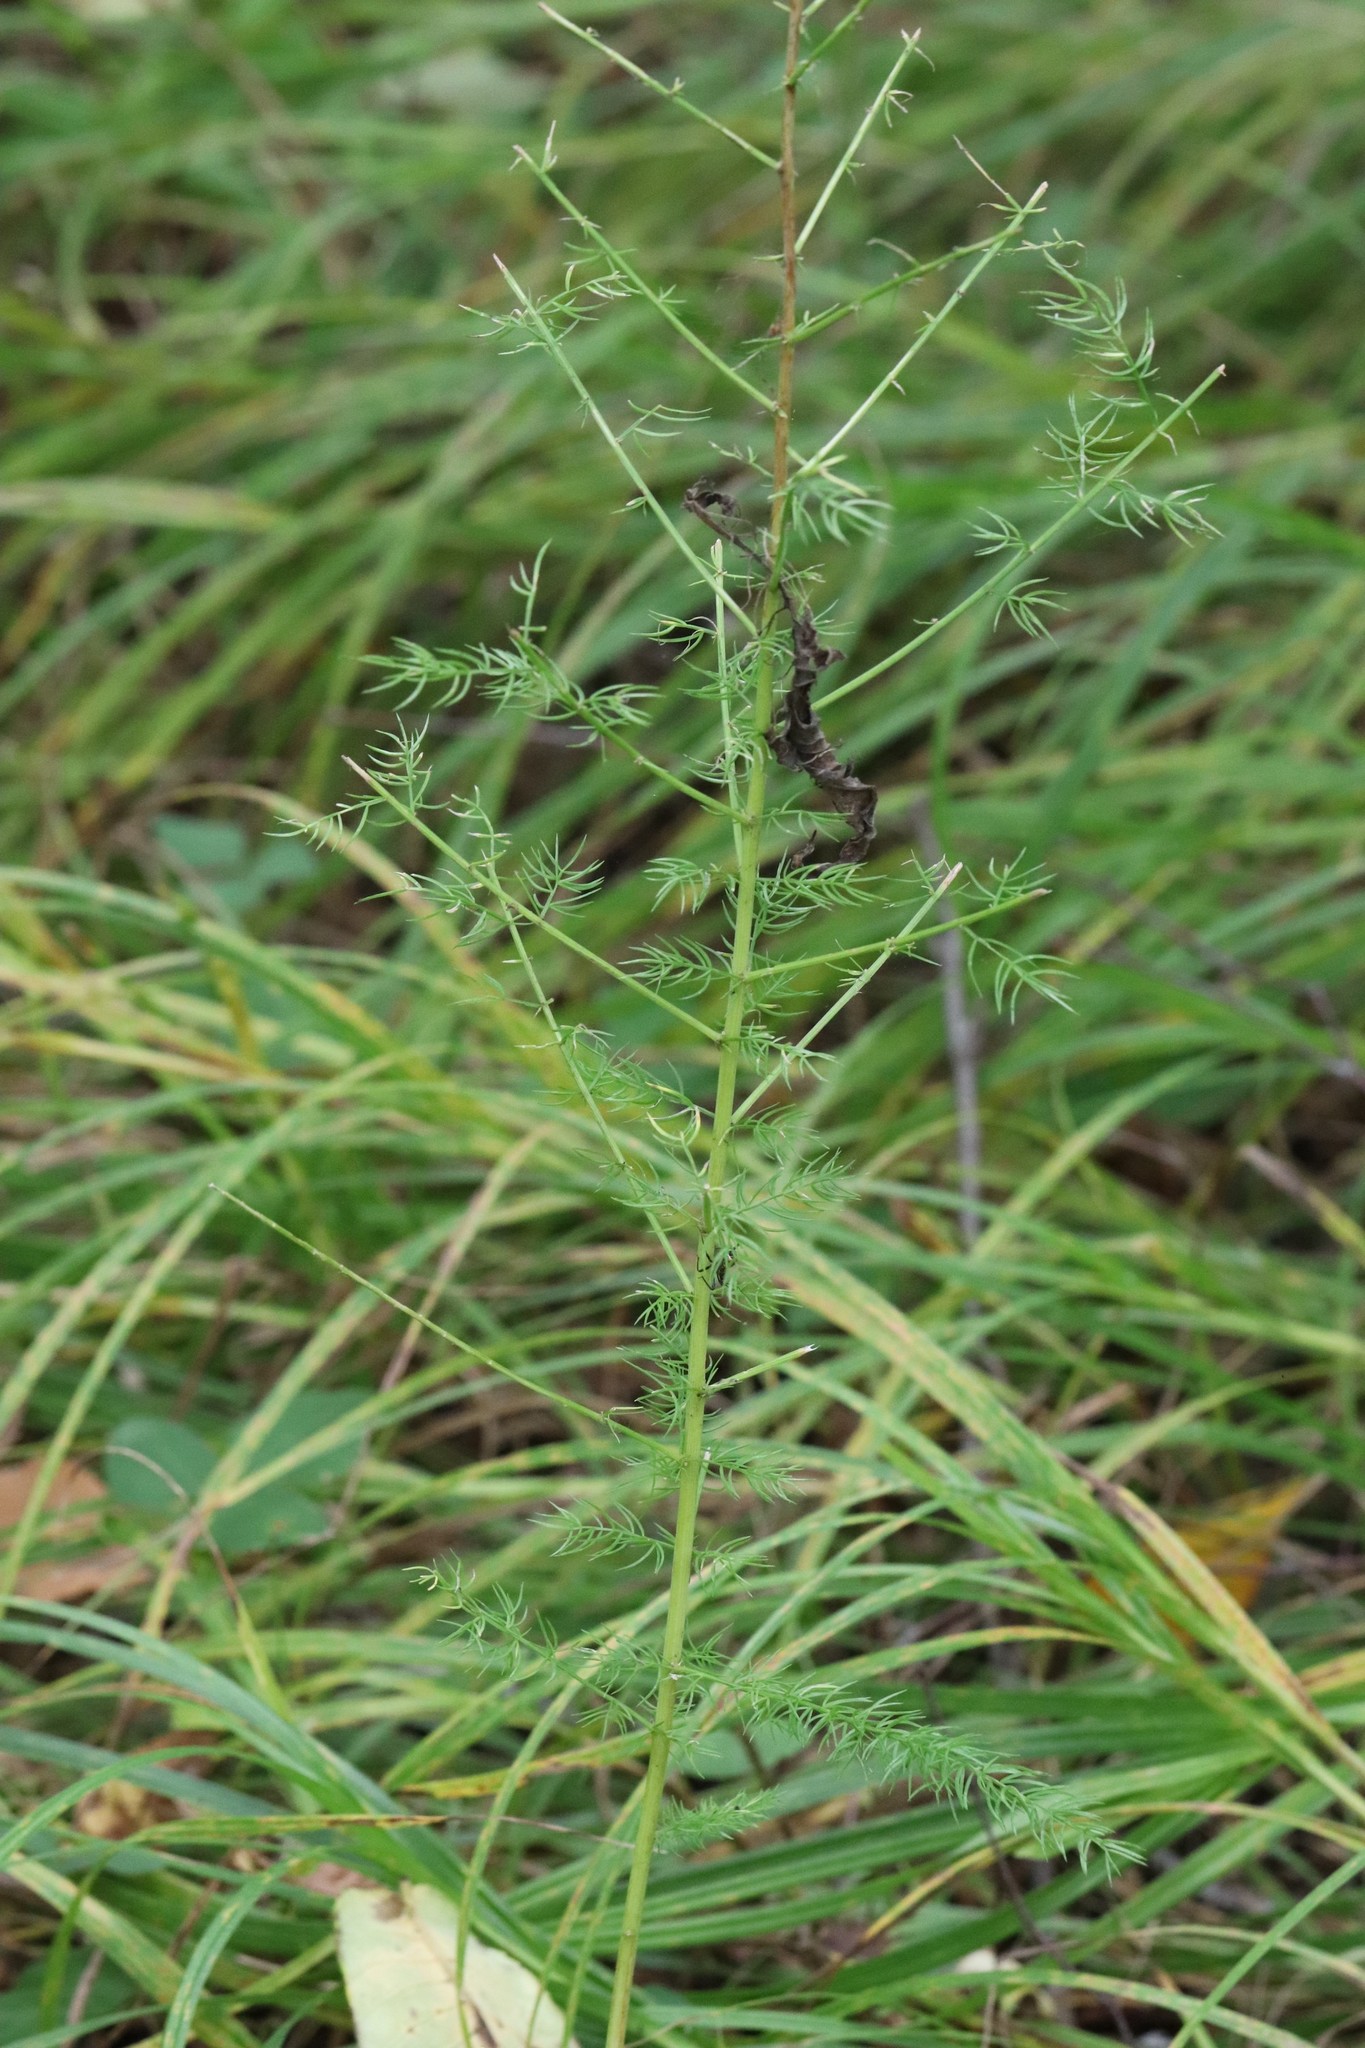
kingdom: Plantae
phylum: Tracheophyta
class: Liliopsida
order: Asparagales
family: Asparagaceae
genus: Asparagus
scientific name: Asparagus schoberioides
